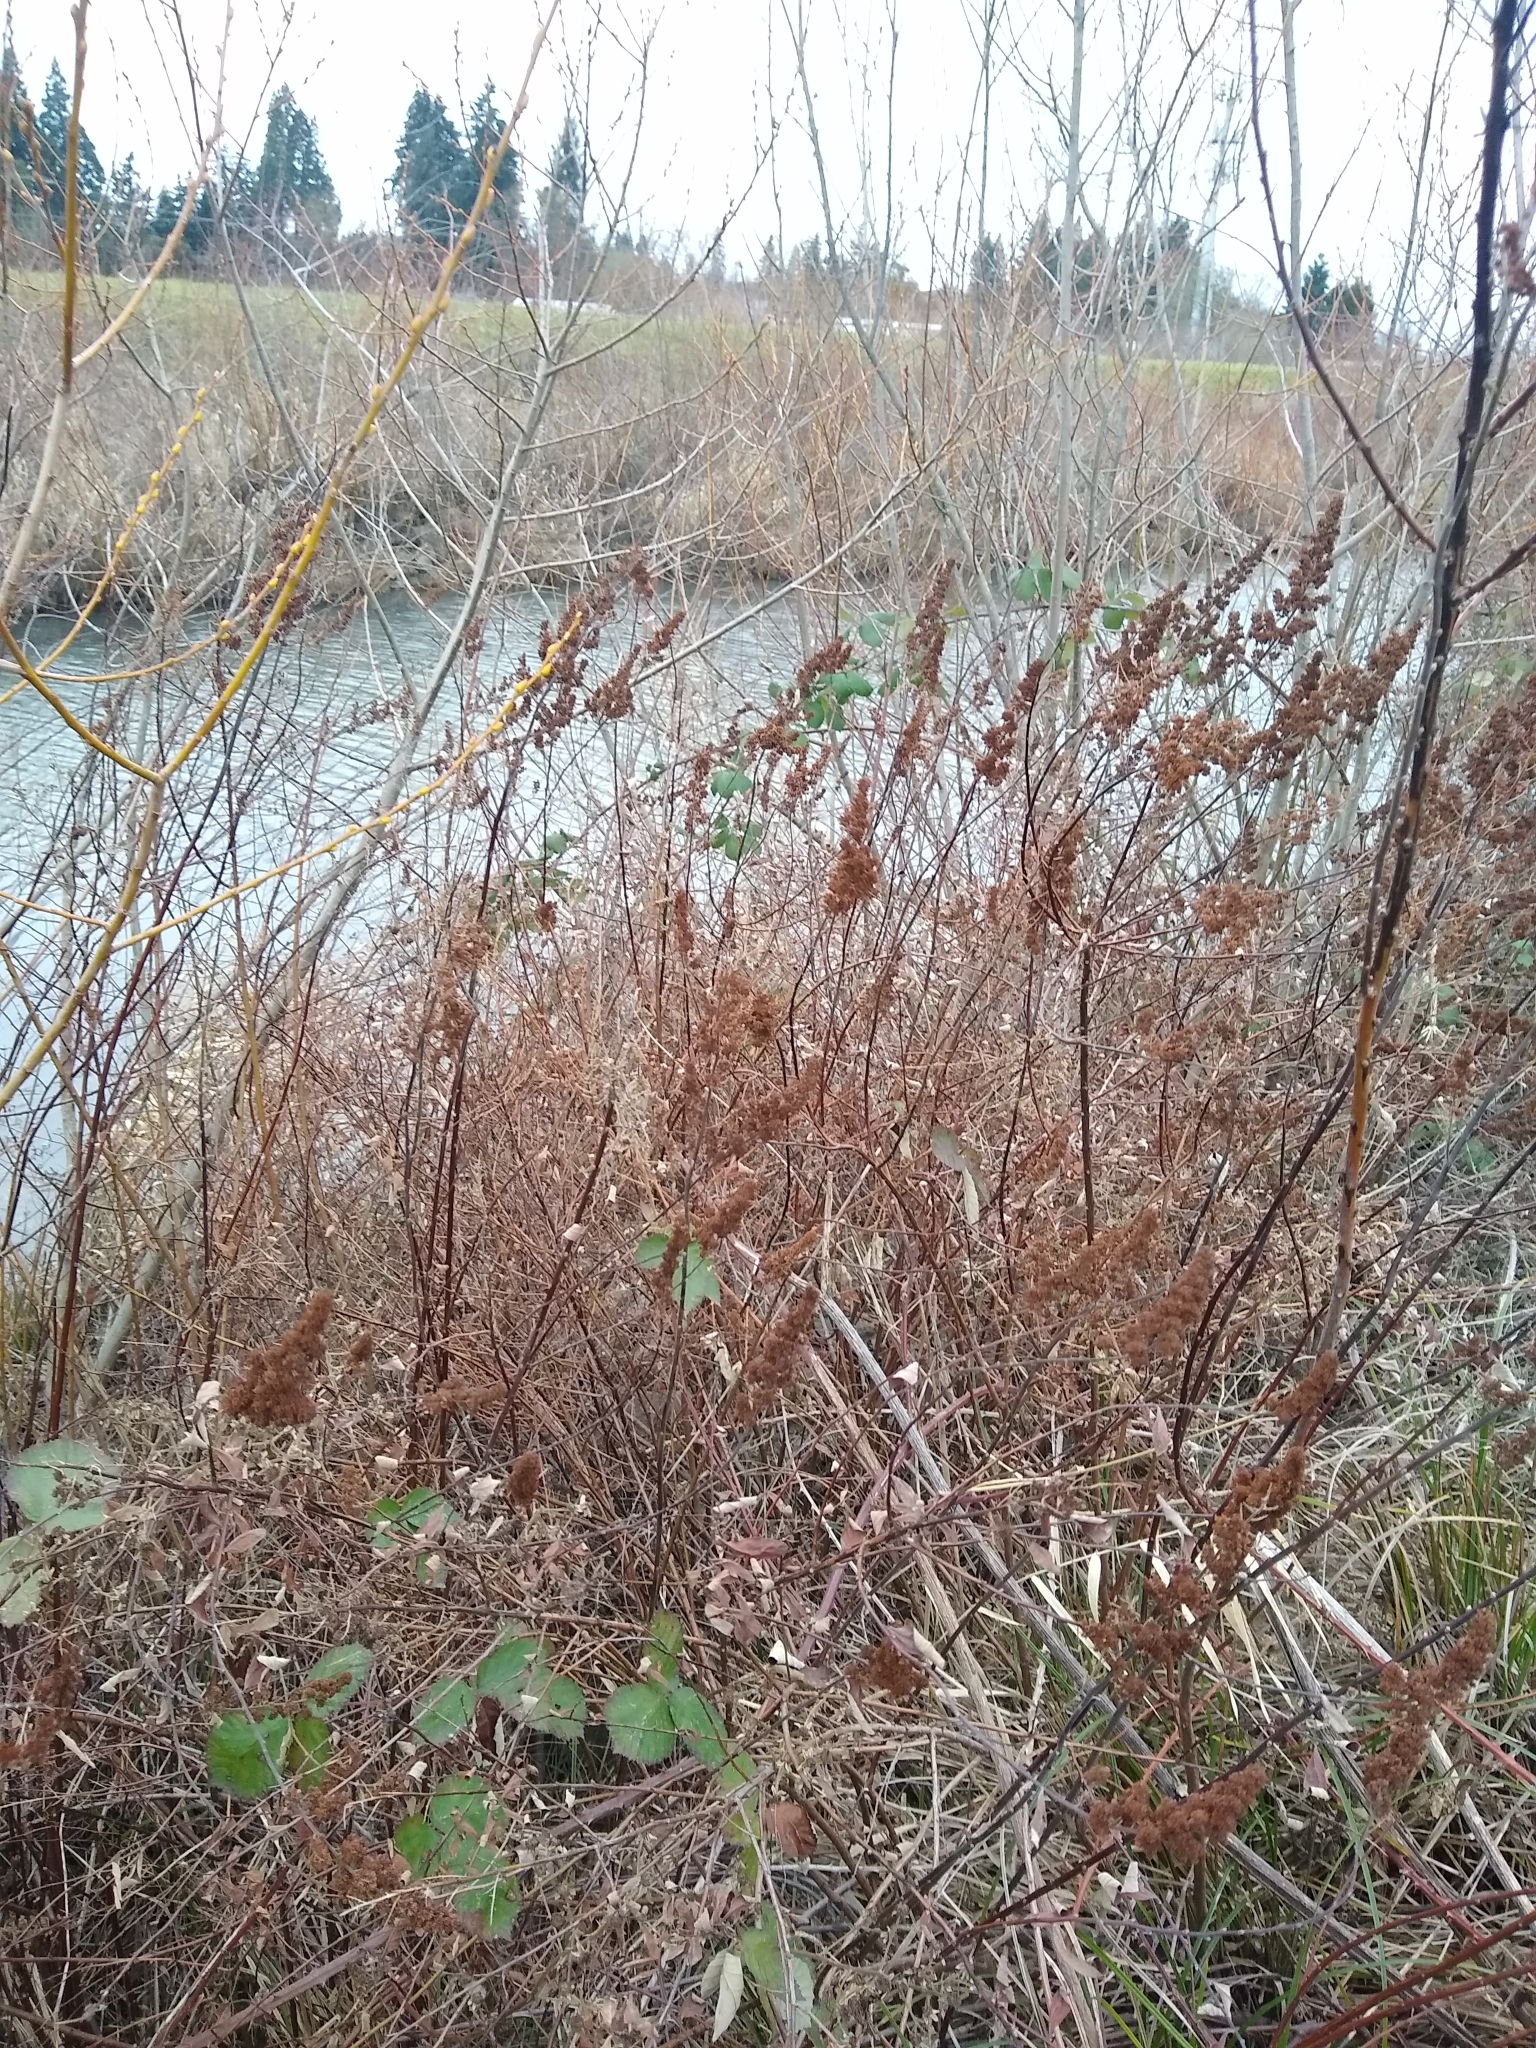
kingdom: Plantae
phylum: Tracheophyta
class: Magnoliopsida
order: Rosales
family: Rosaceae
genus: Spiraea
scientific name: Spiraea douglasii
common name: Steeplebush
